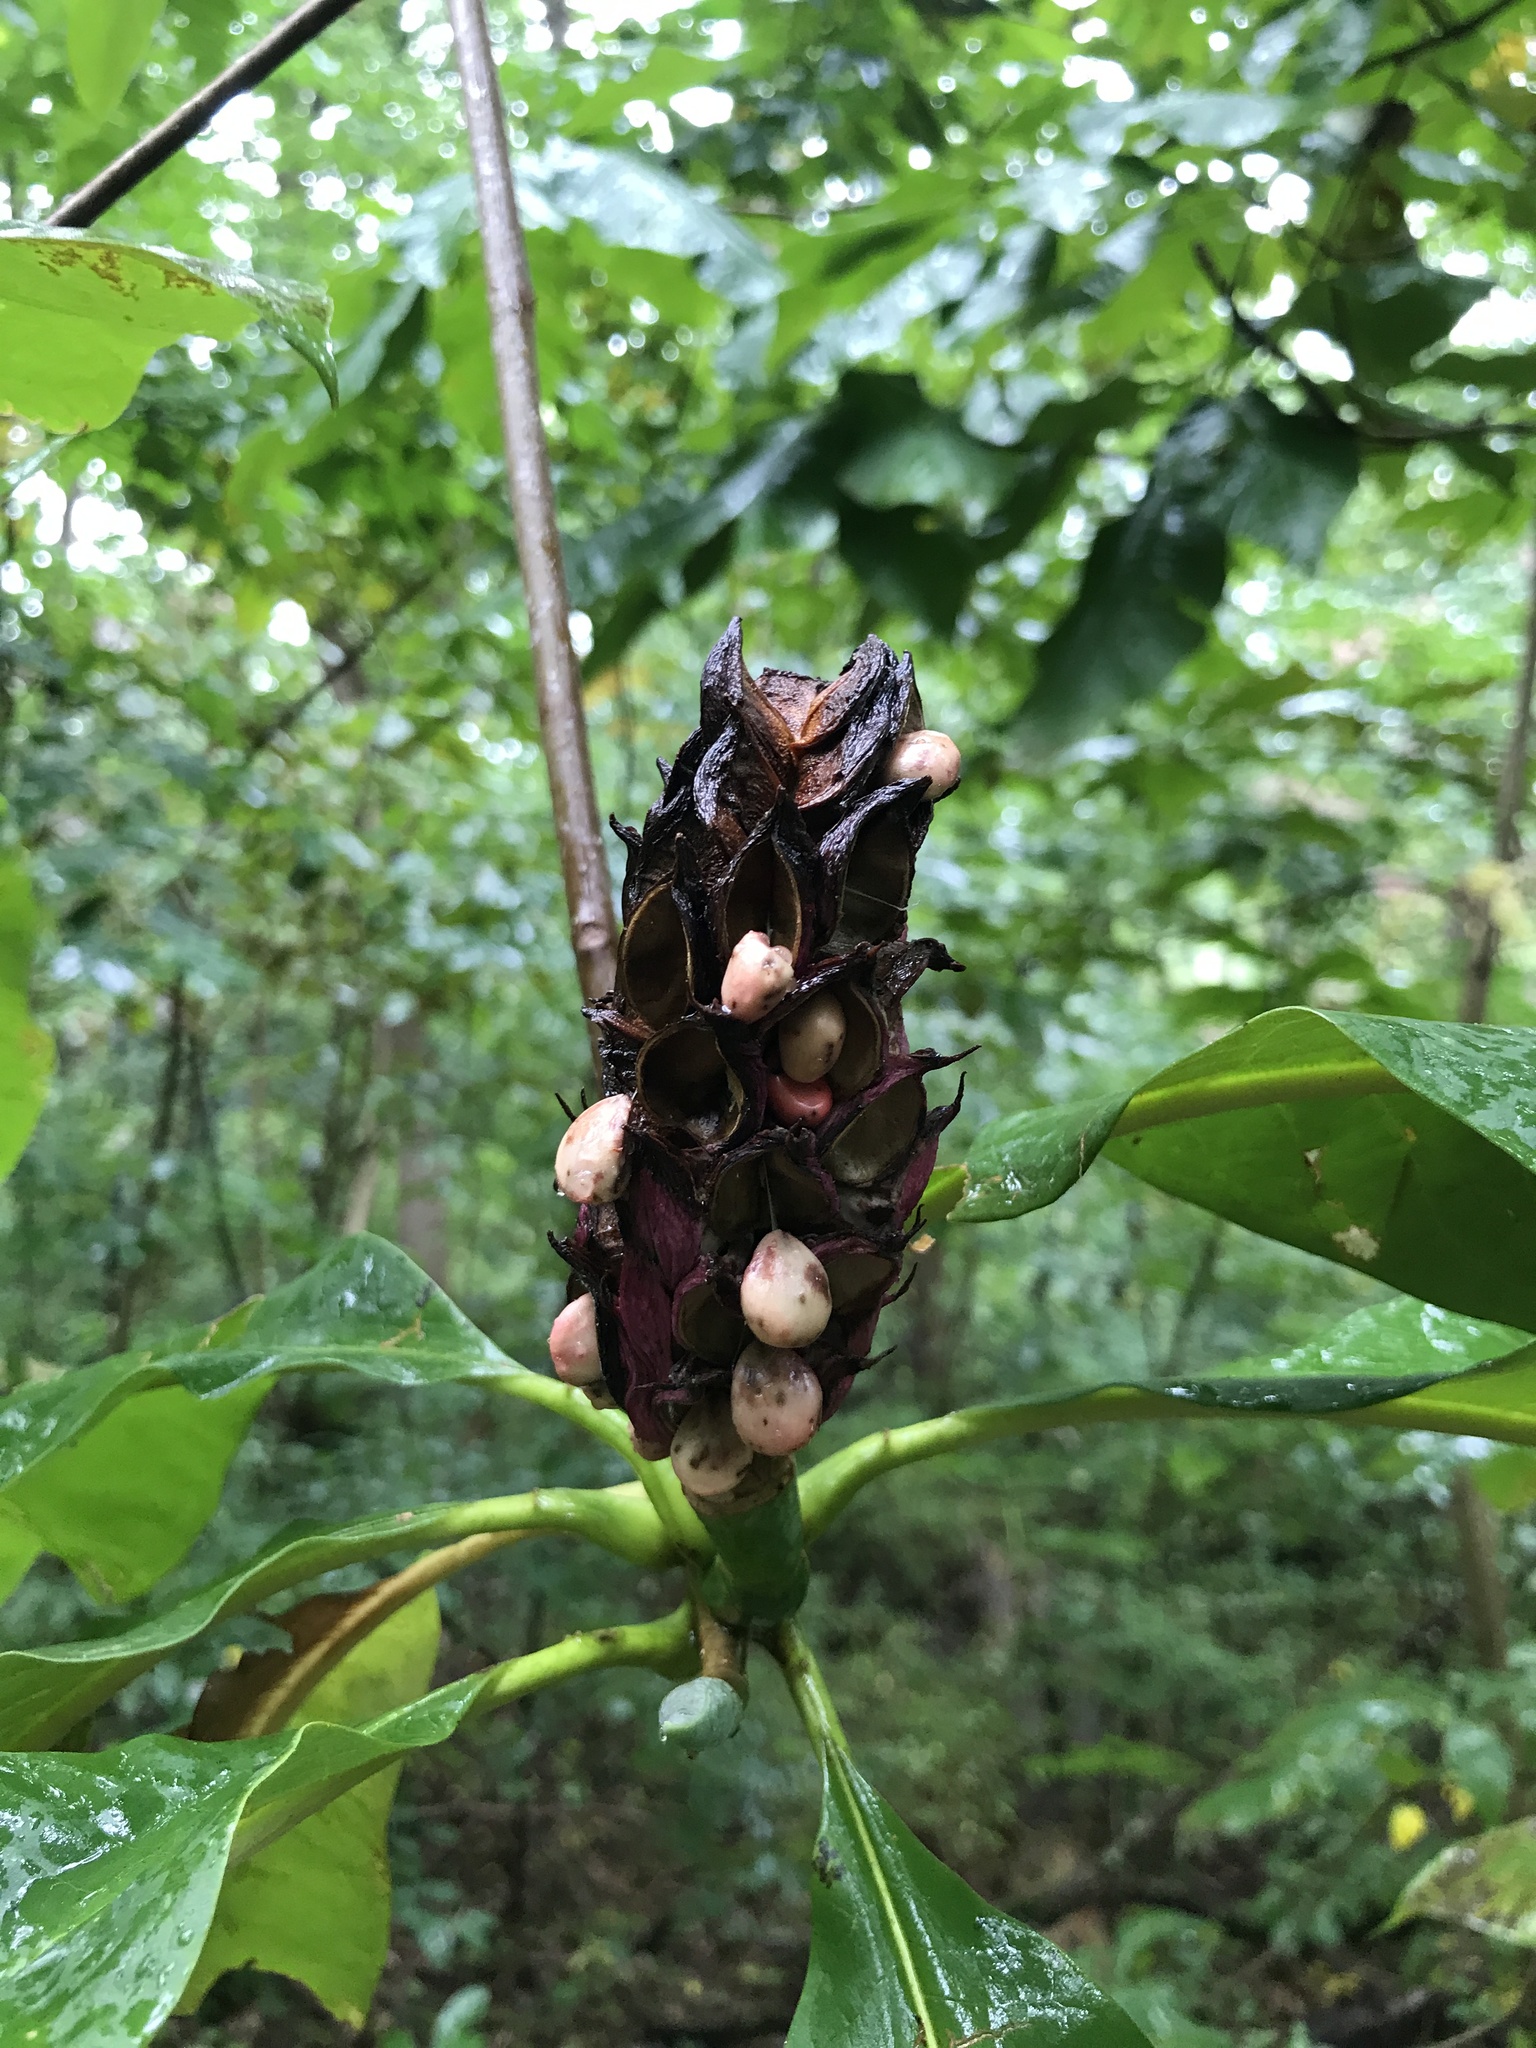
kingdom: Plantae
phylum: Tracheophyta
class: Magnoliopsida
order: Magnoliales
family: Magnoliaceae
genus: Magnolia
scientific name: Magnolia tripetala
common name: Umbrella magnolia
